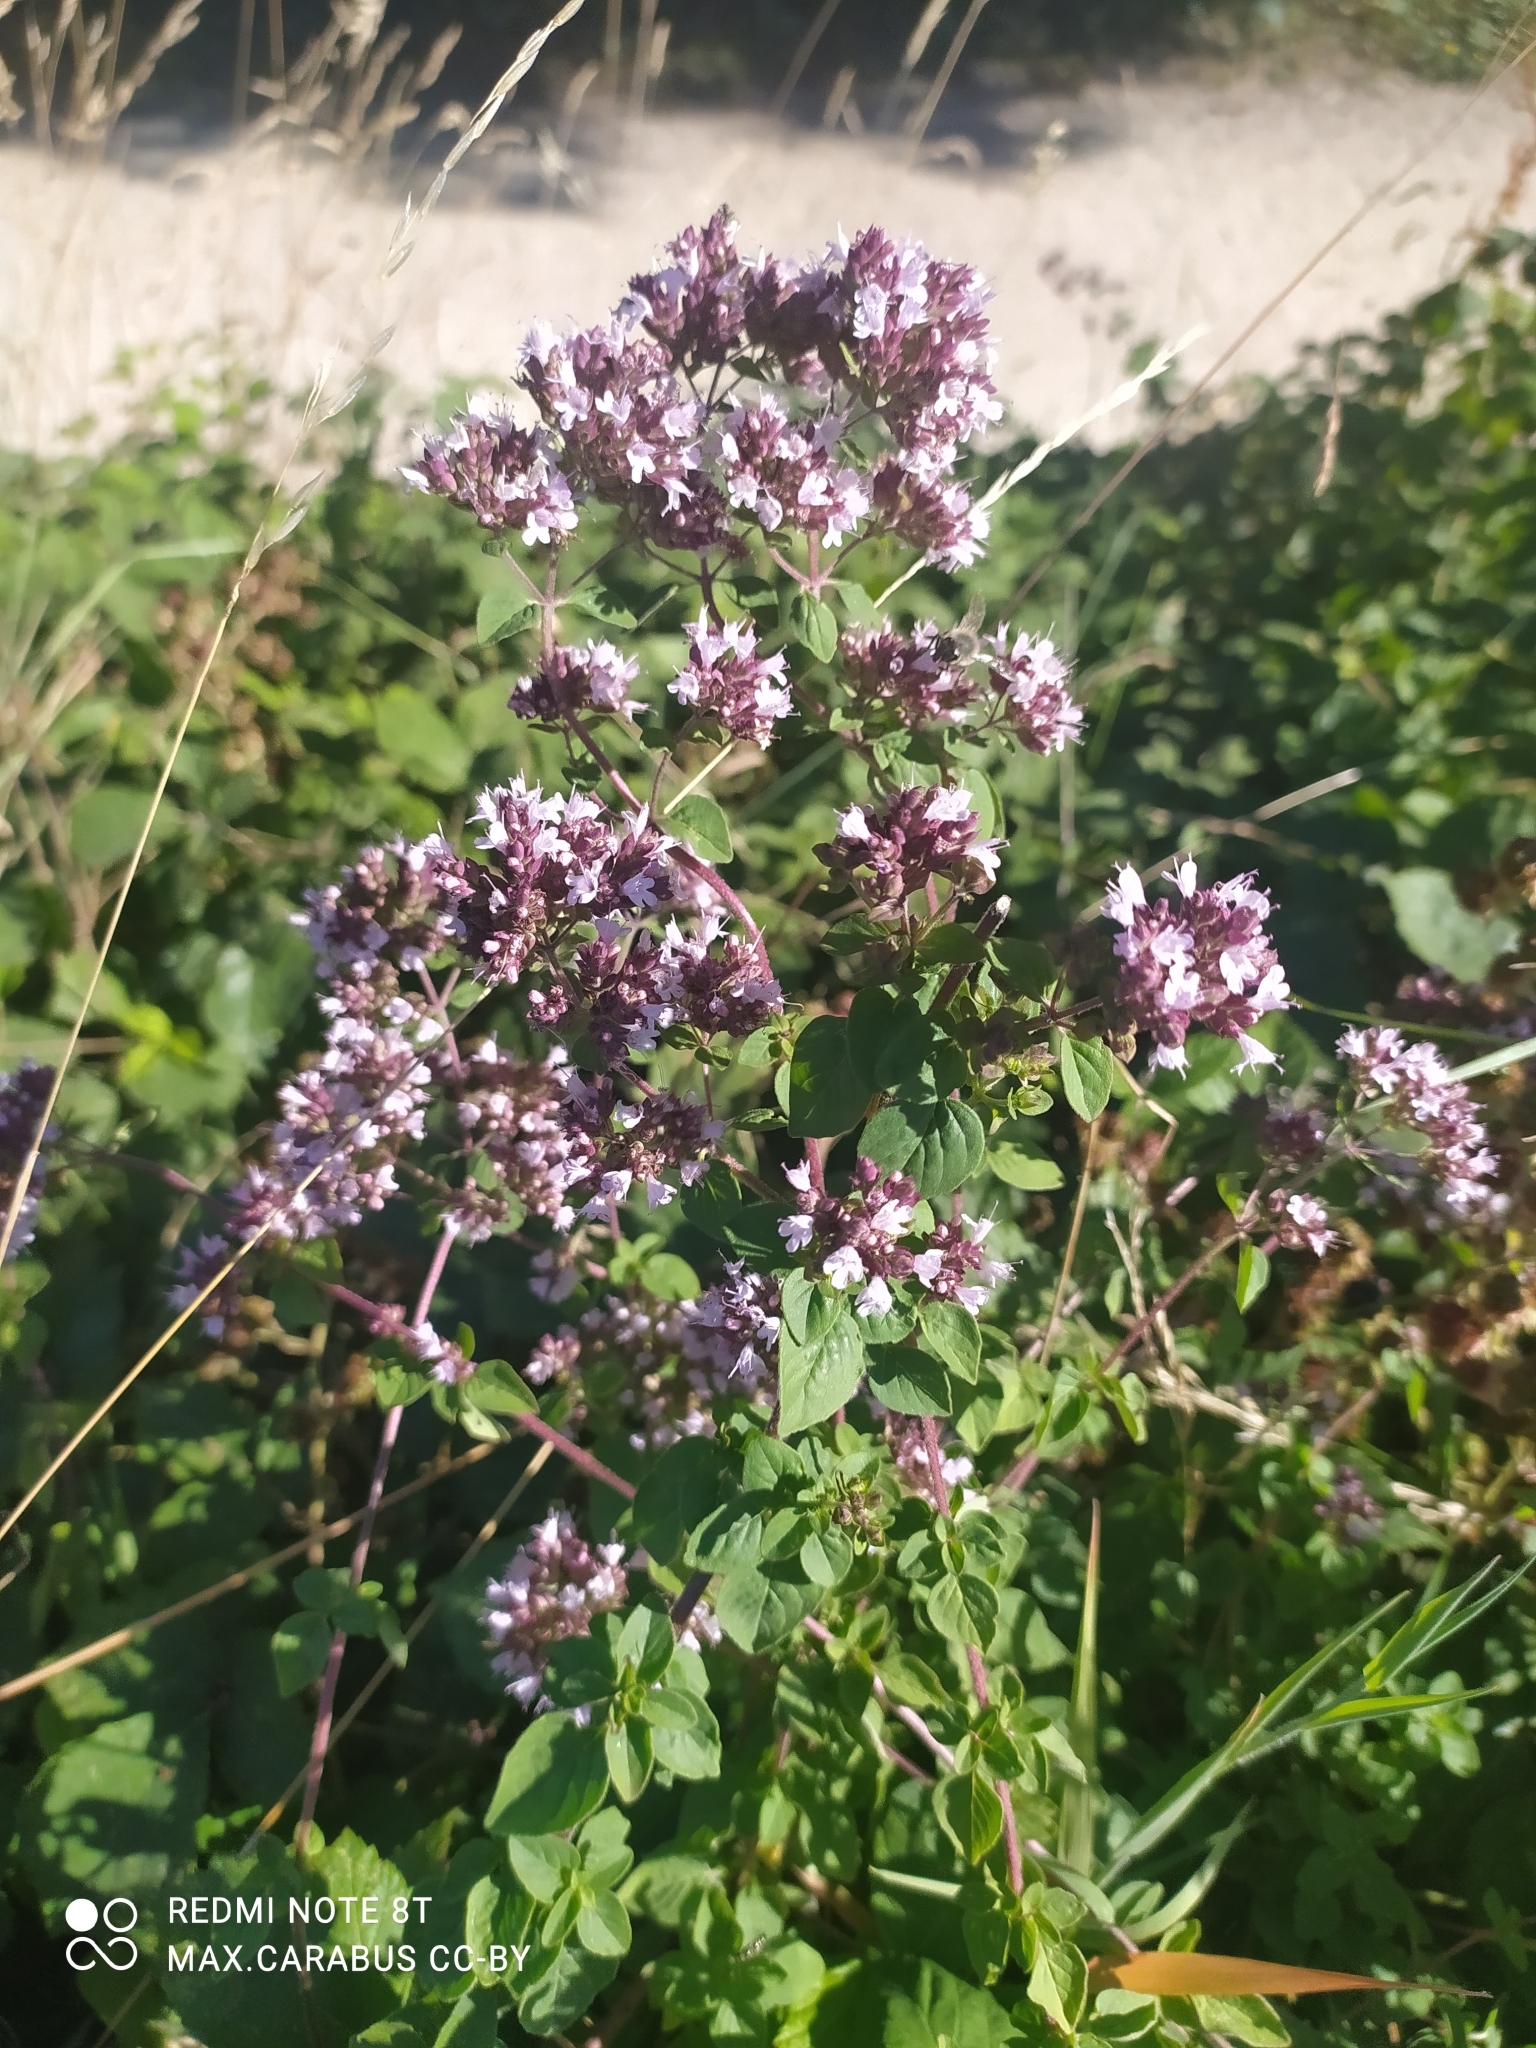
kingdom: Plantae
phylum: Tracheophyta
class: Magnoliopsida
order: Lamiales
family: Lamiaceae
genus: Origanum
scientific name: Origanum vulgare
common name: Wild marjoram
